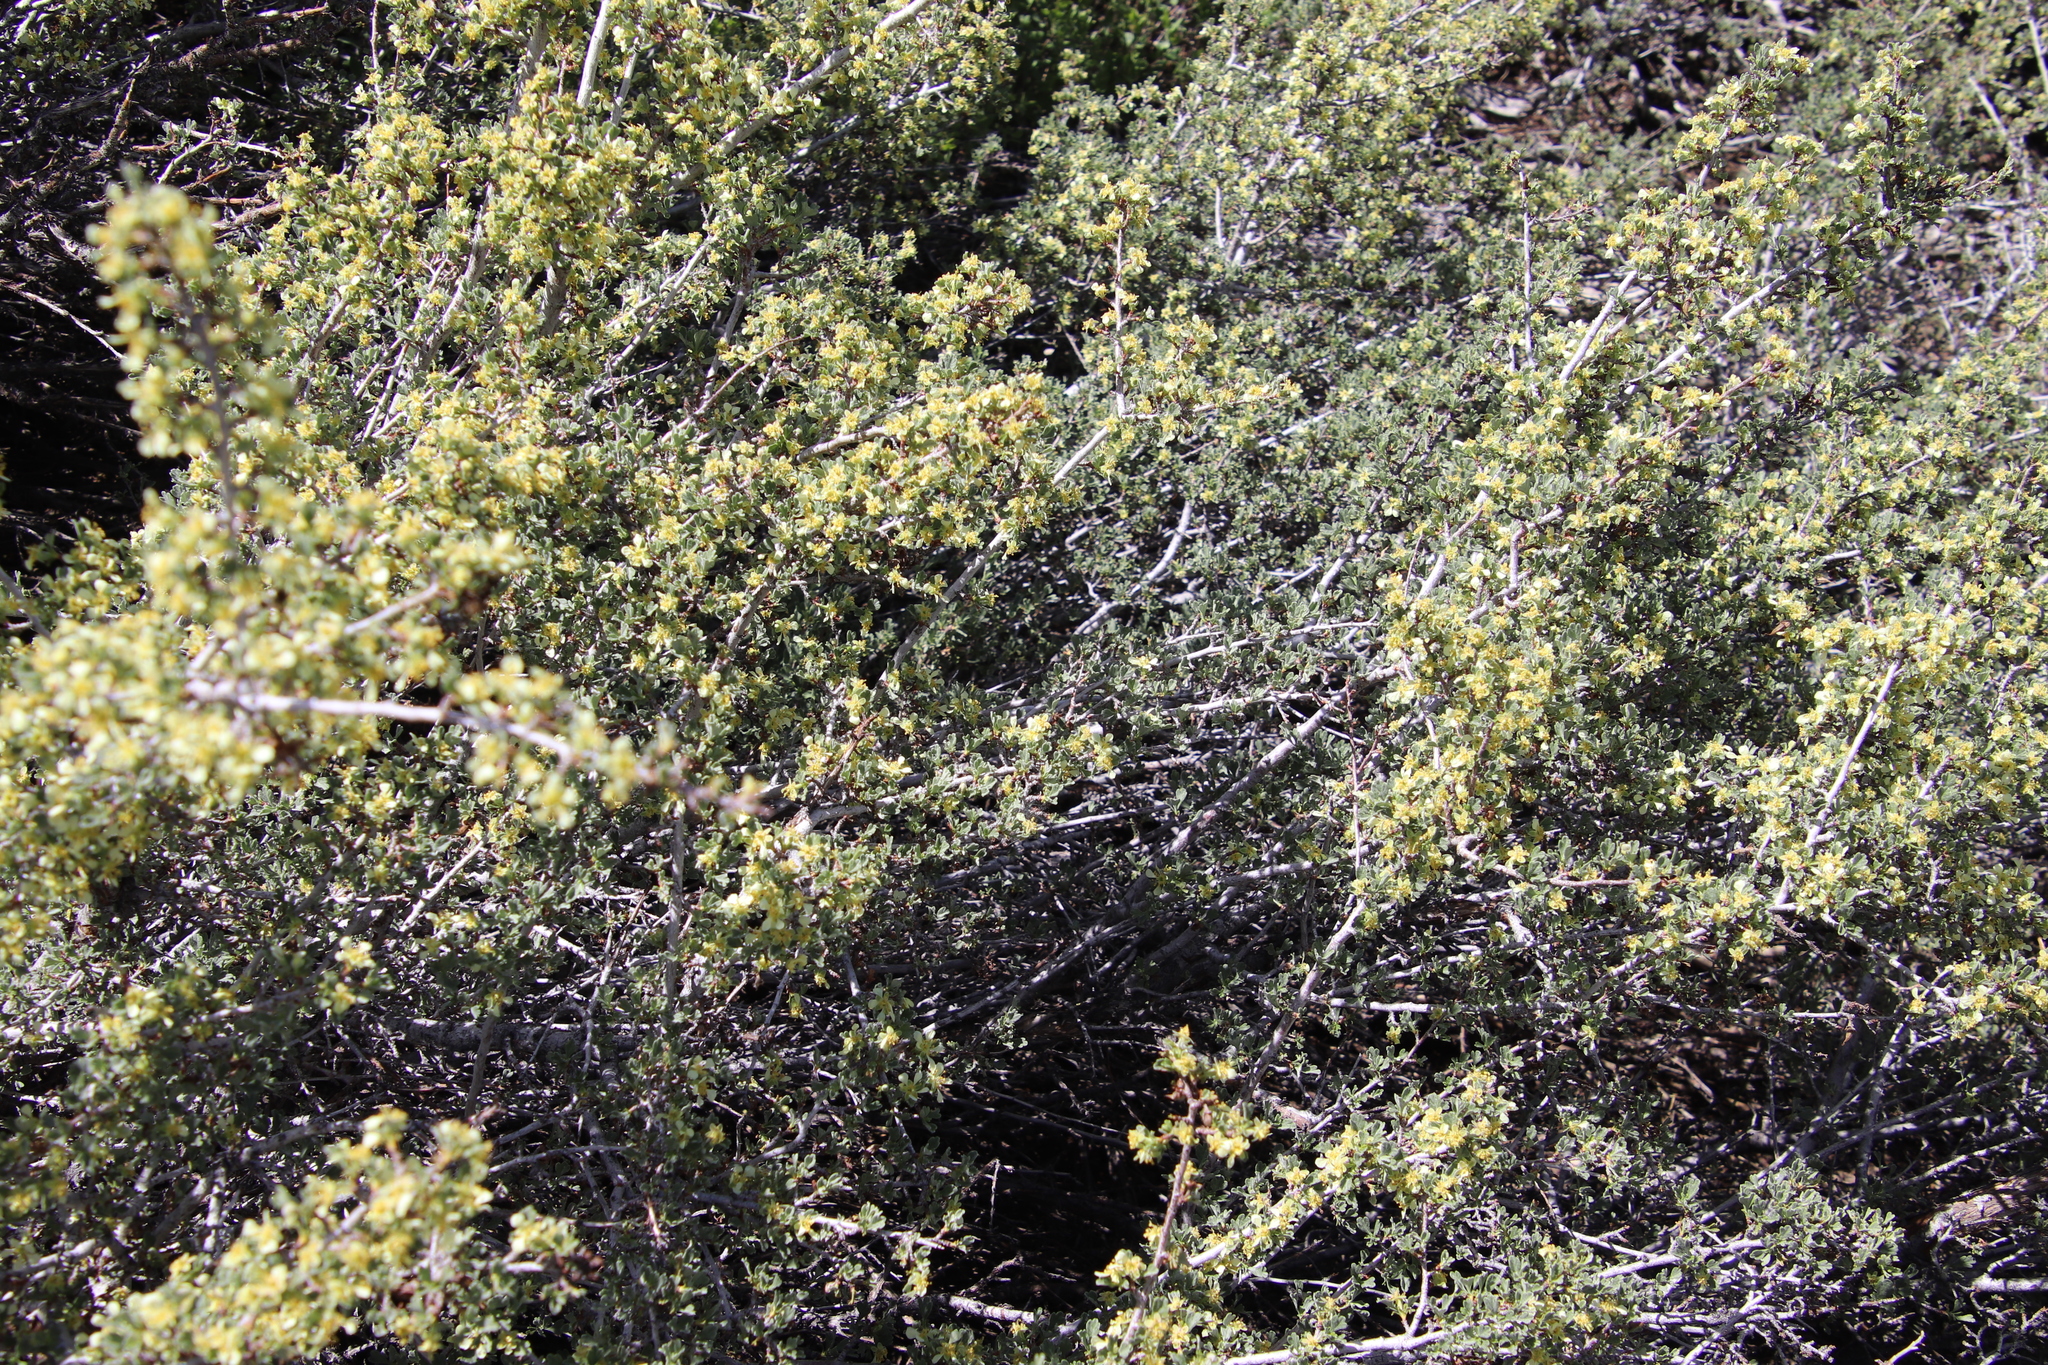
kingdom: Plantae
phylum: Tracheophyta
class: Magnoliopsida
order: Rosales
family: Rosaceae
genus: Purshia
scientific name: Purshia tridentata
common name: Antelope bitterbrush
